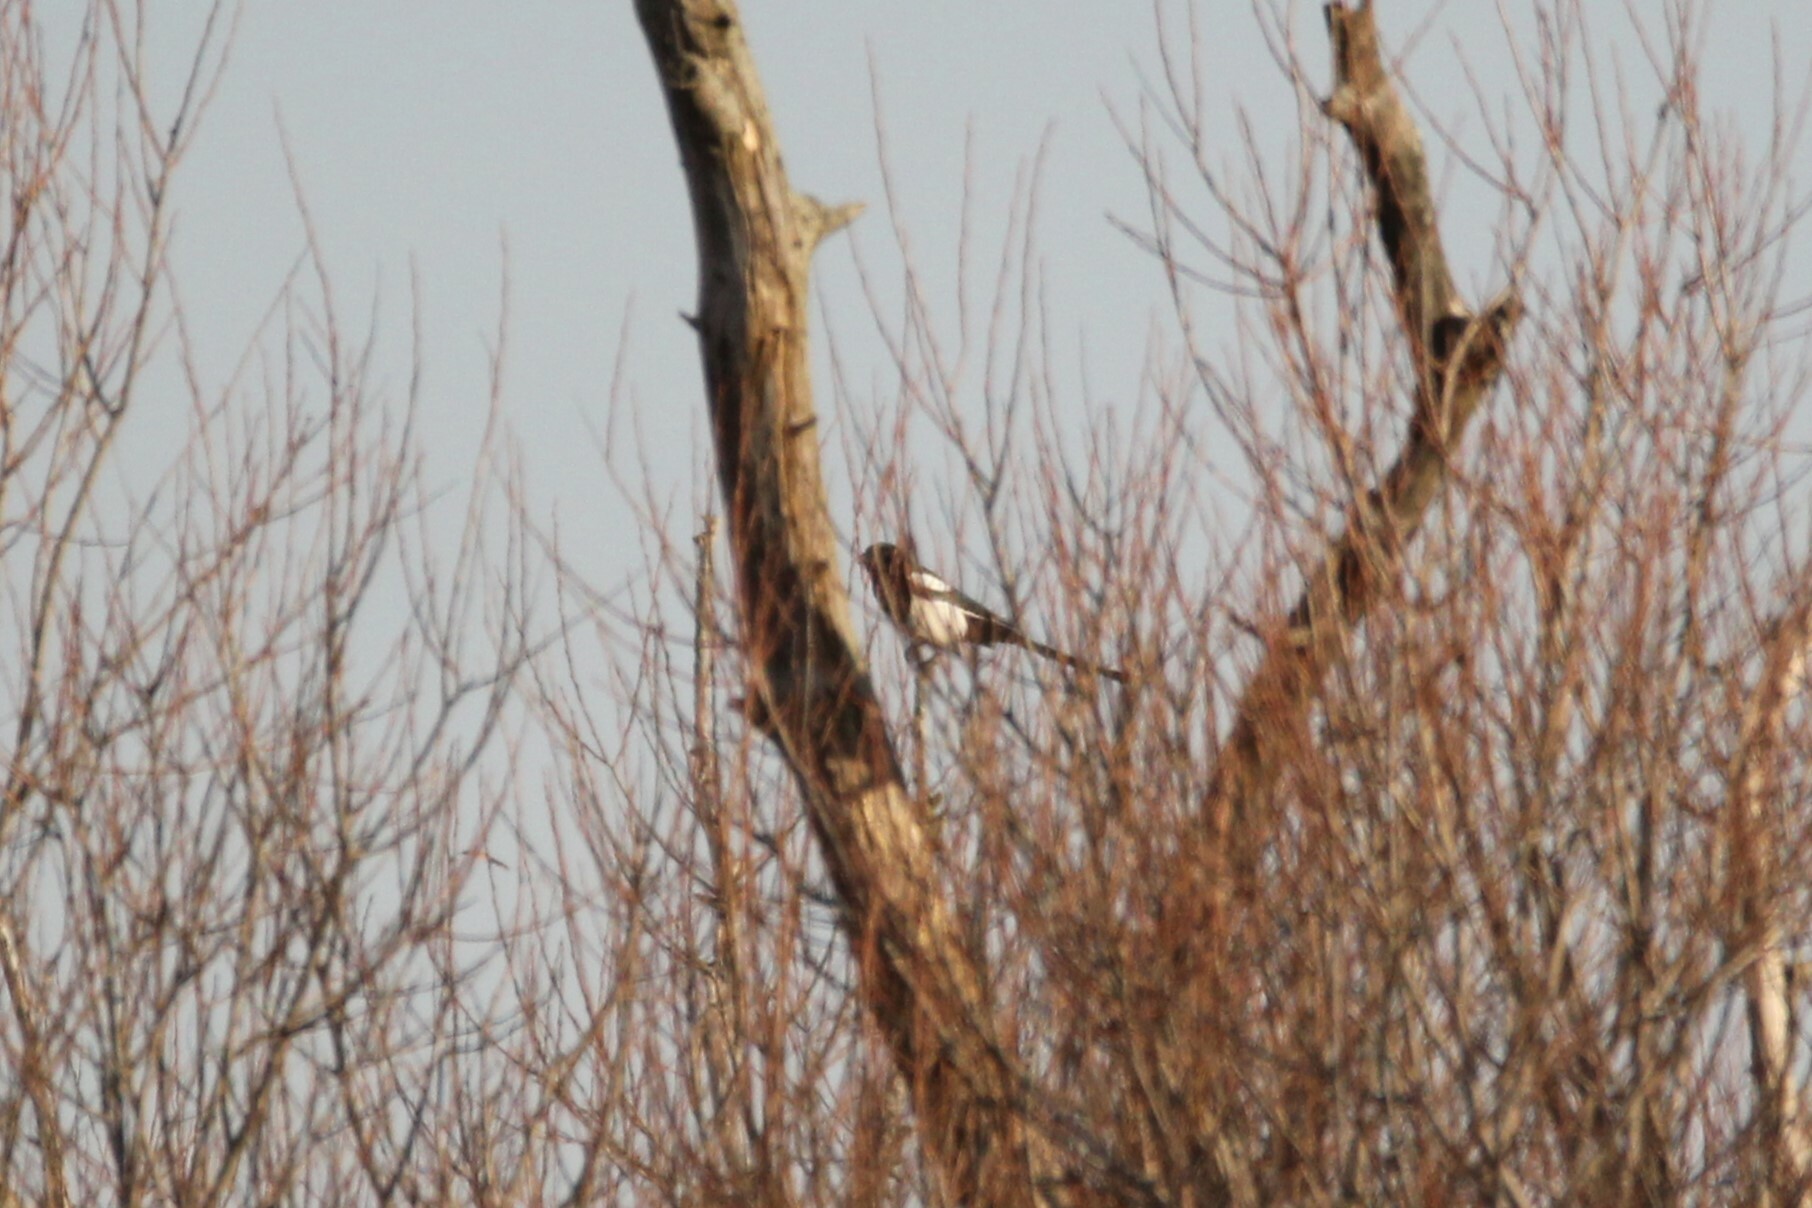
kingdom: Animalia
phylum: Chordata
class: Aves
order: Passeriformes
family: Corvidae
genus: Pica
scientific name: Pica hudsonia
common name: Black-billed magpie
